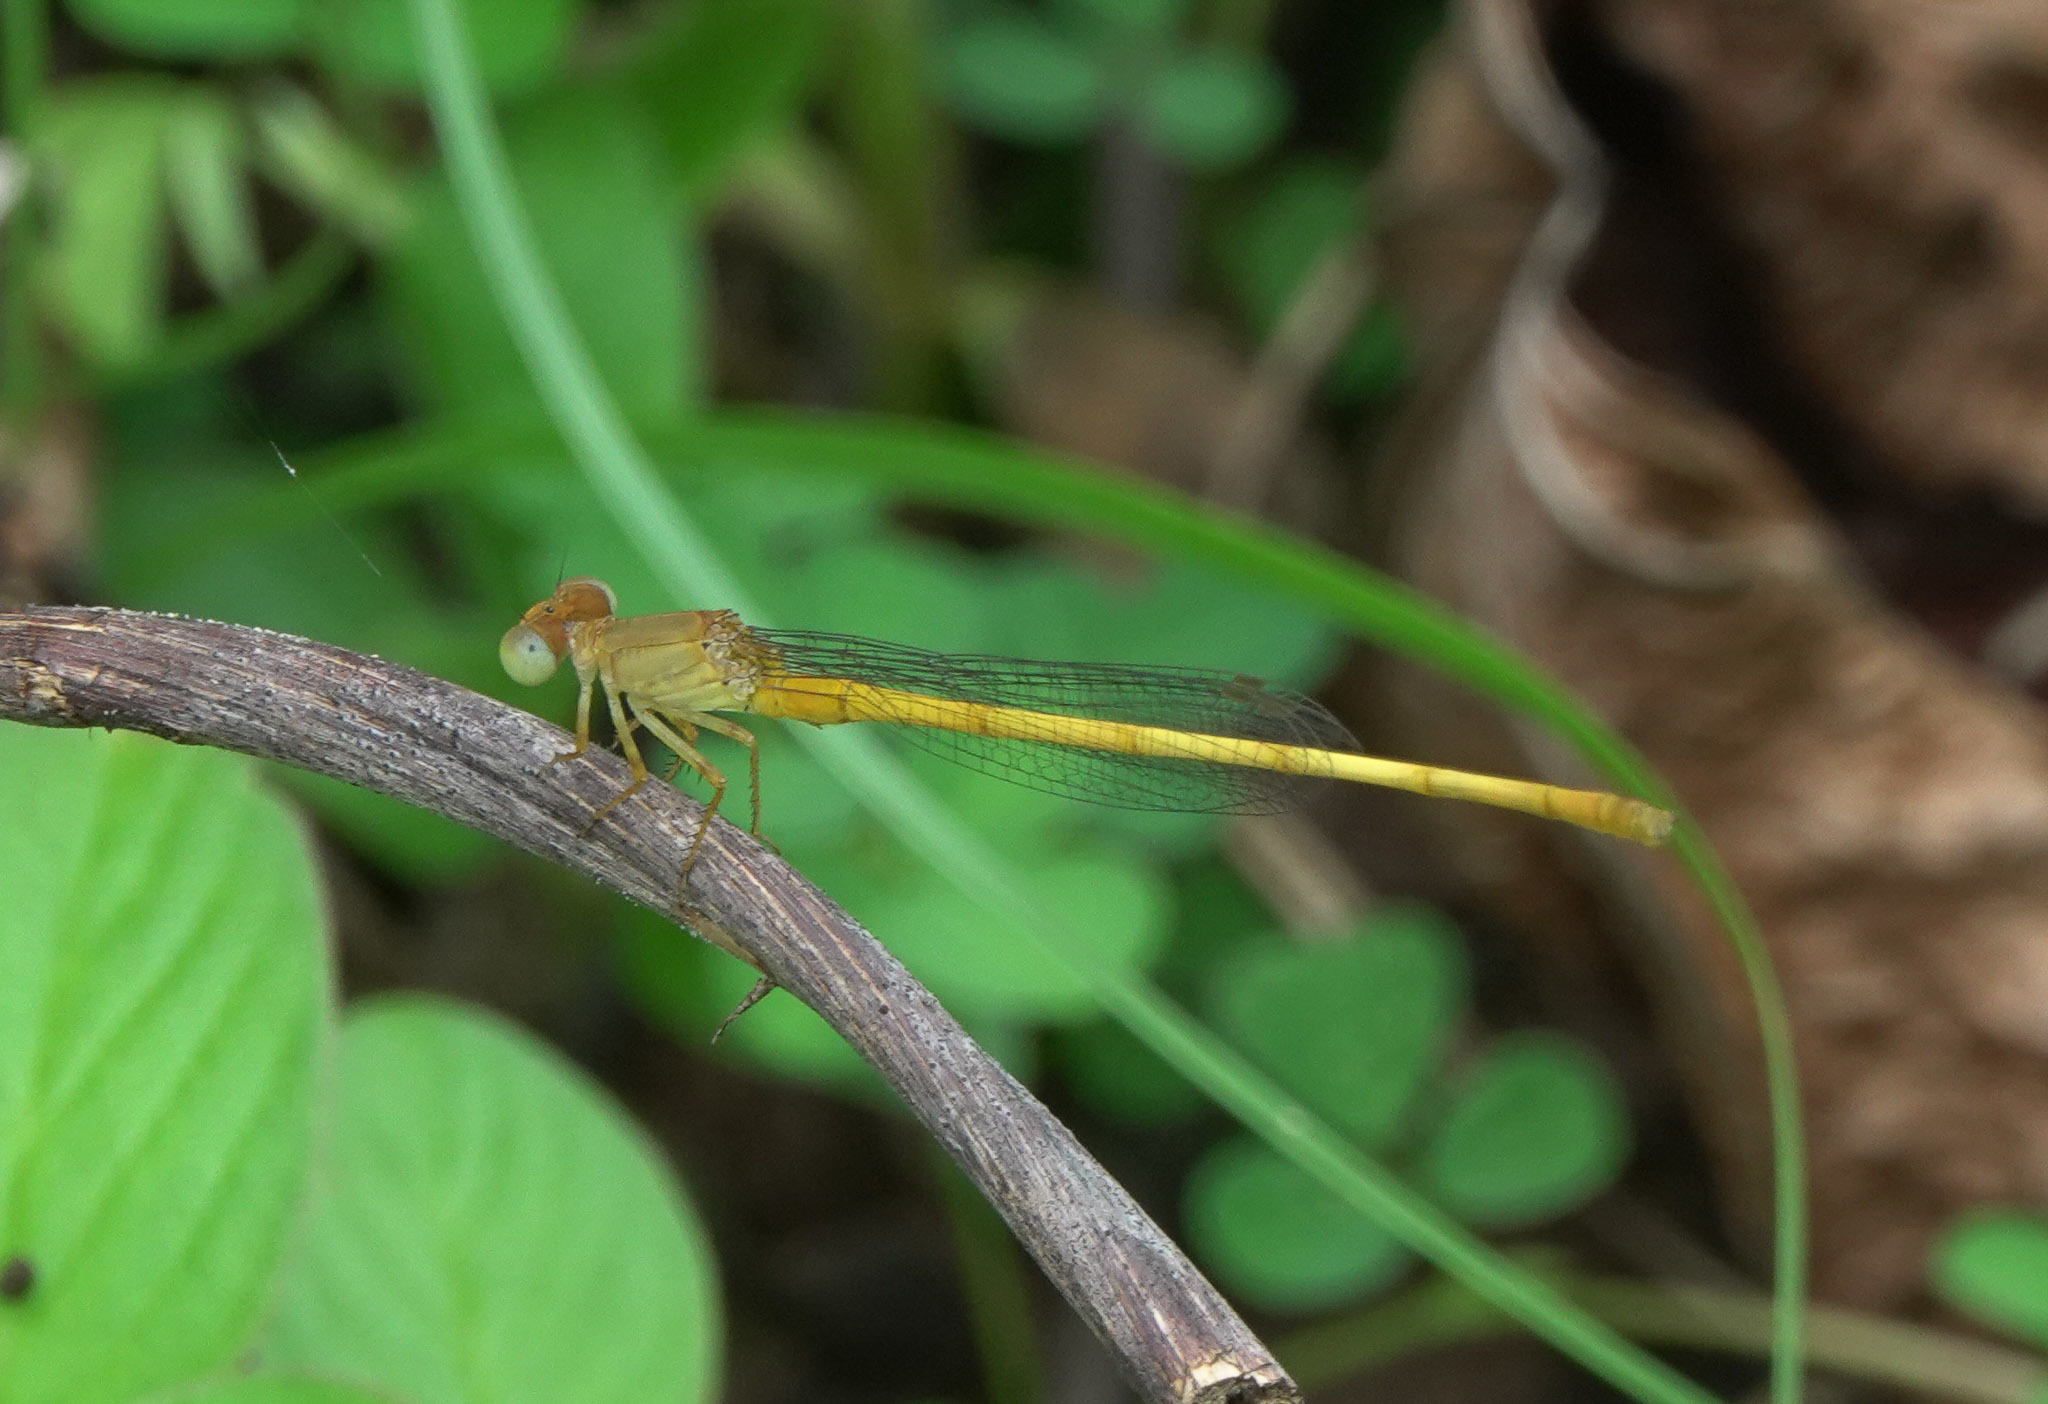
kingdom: Animalia
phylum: Arthropoda
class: Insecta
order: Odonata
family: Coenagrionidae
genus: Ceriagrion
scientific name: Ceriagrion coromandelianum
